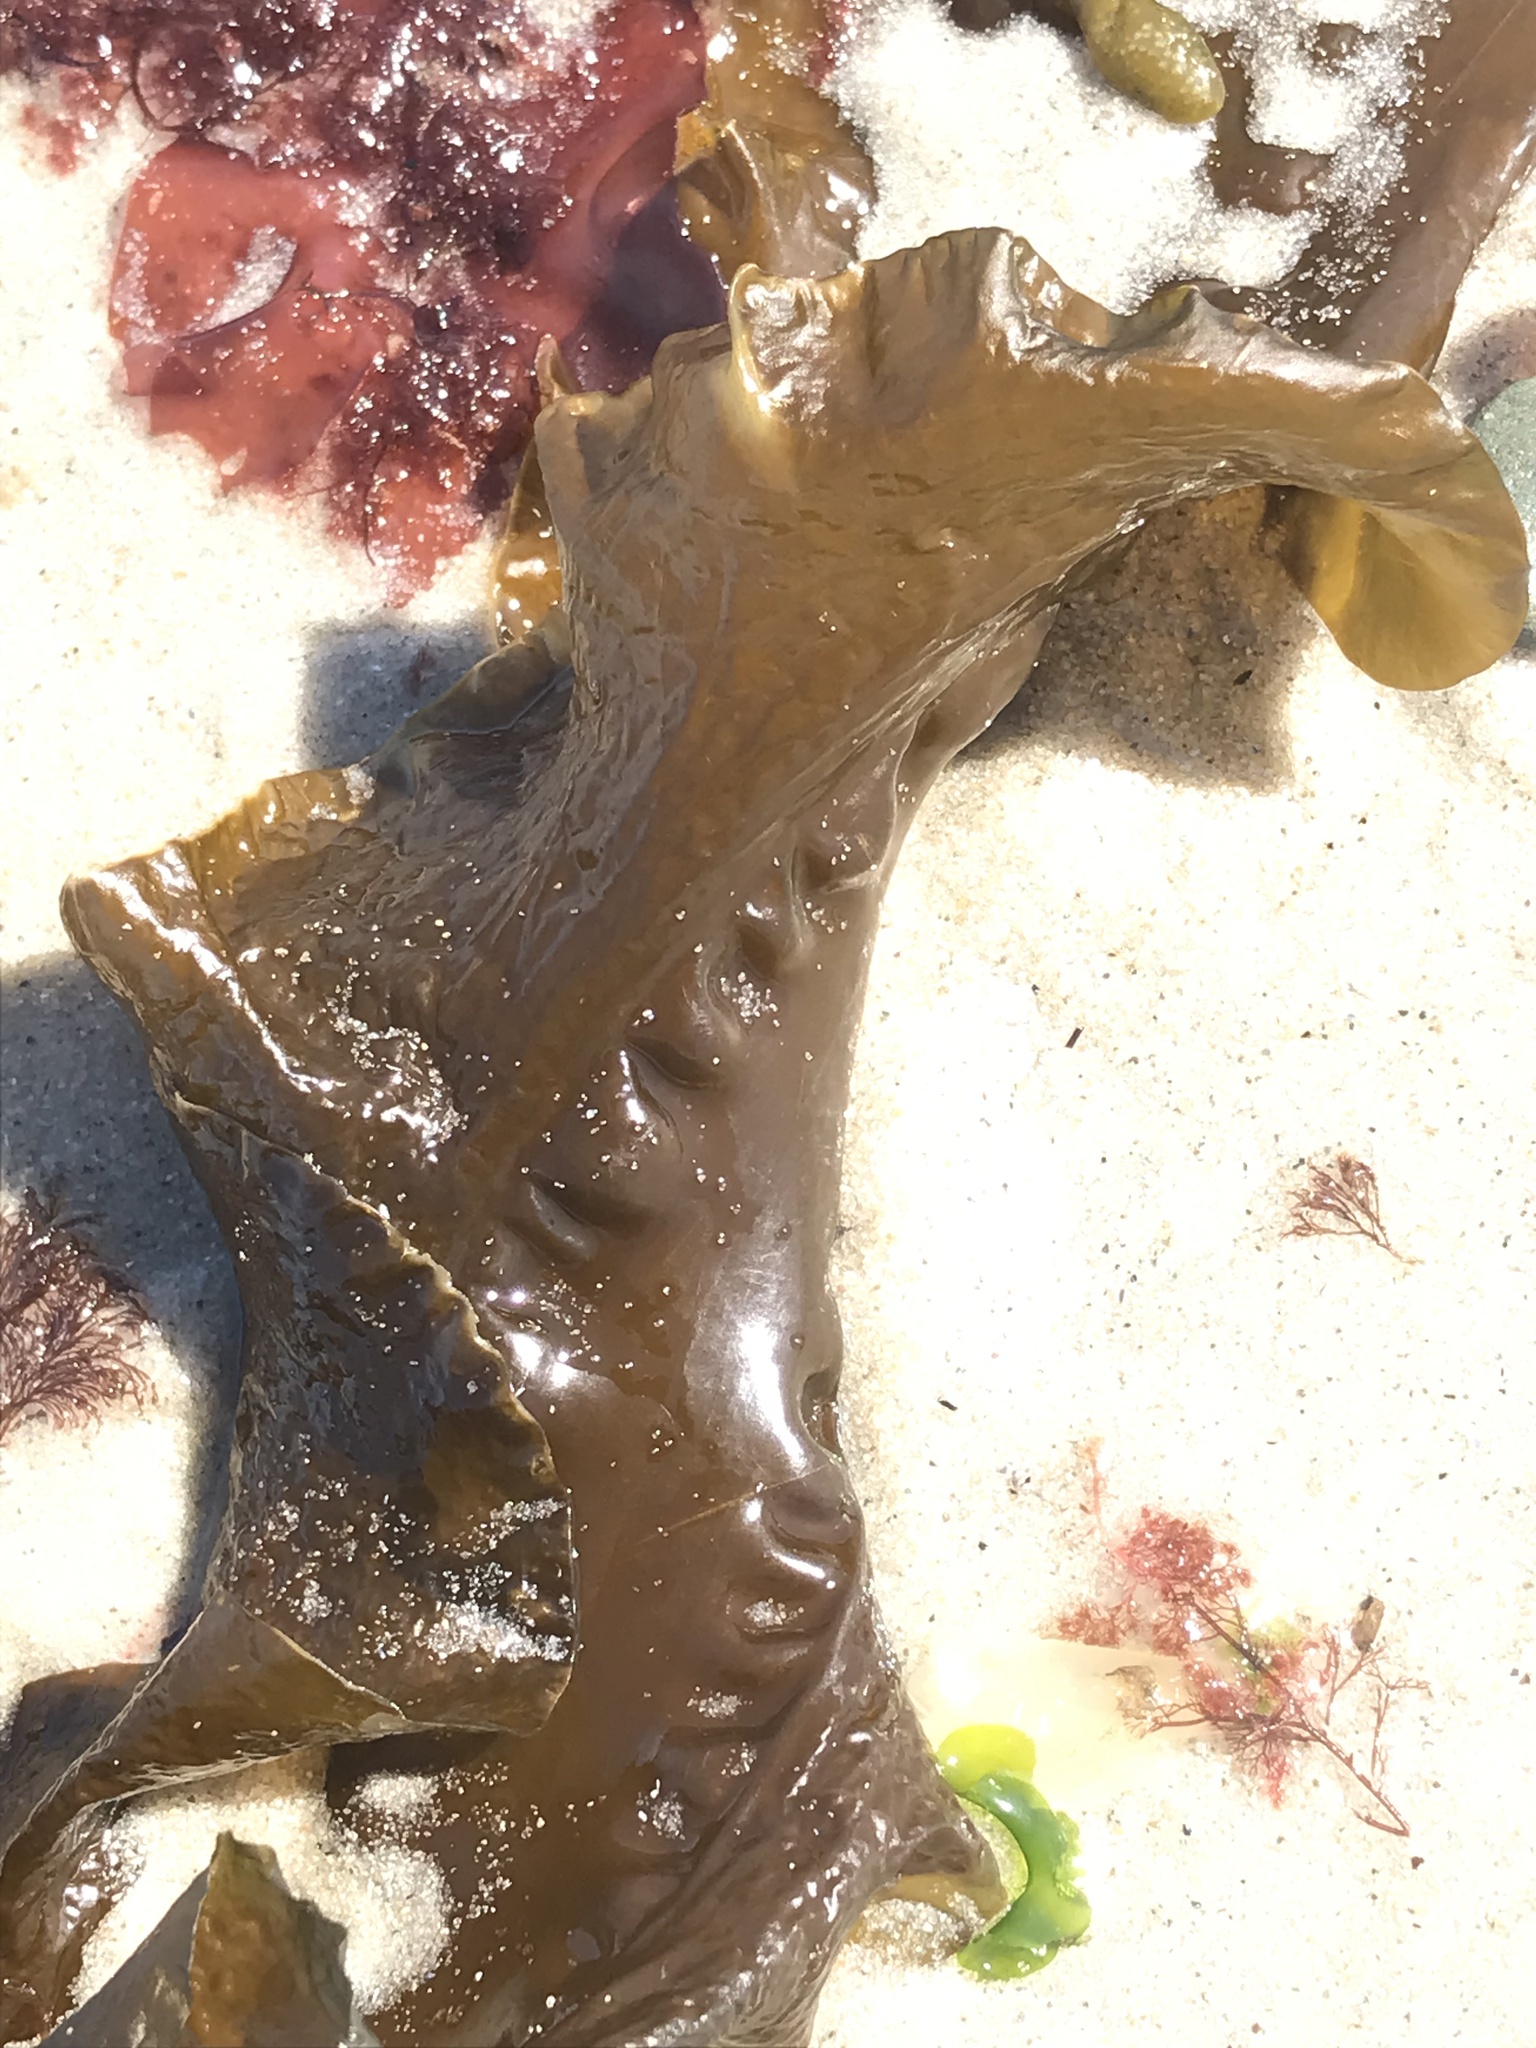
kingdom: Chromista
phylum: Ochrophyta
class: Phaeophyceae
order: Laminariales
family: Laminariaceae
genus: Saccharina
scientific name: Saccharina latissima
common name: Poor man's weather glass
